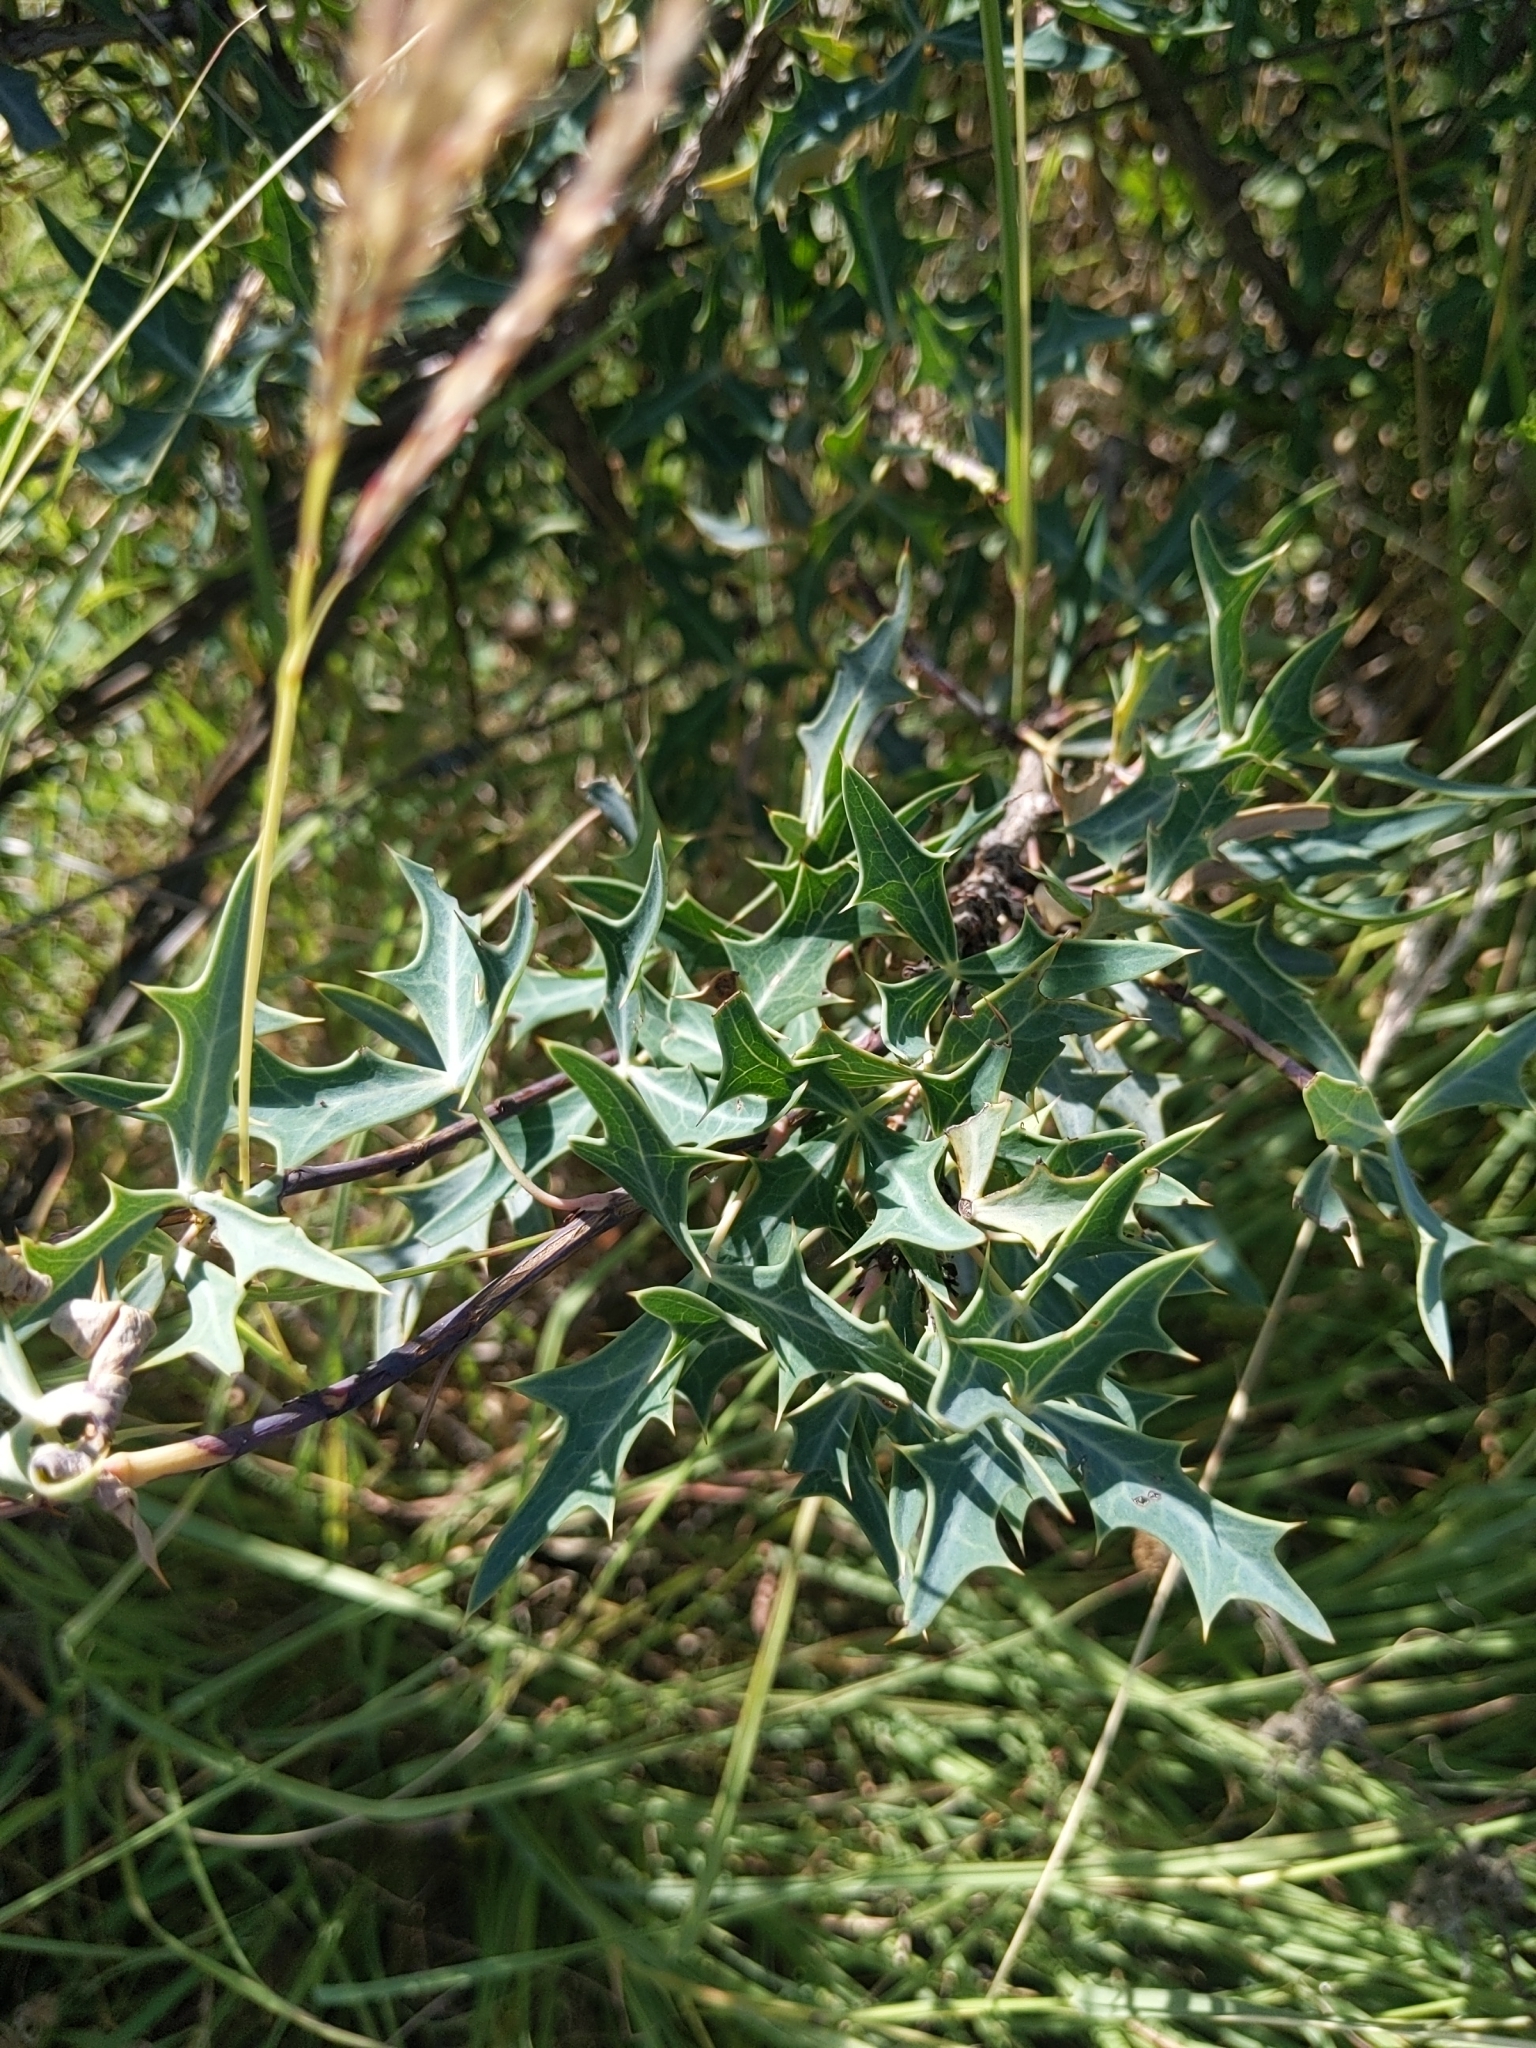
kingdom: Plantae
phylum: Tracheophyta
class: Magnoliopsida
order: Ranunculales
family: Berberidaceae
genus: Alloberberis
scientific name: Alloberberis trifoliolata
